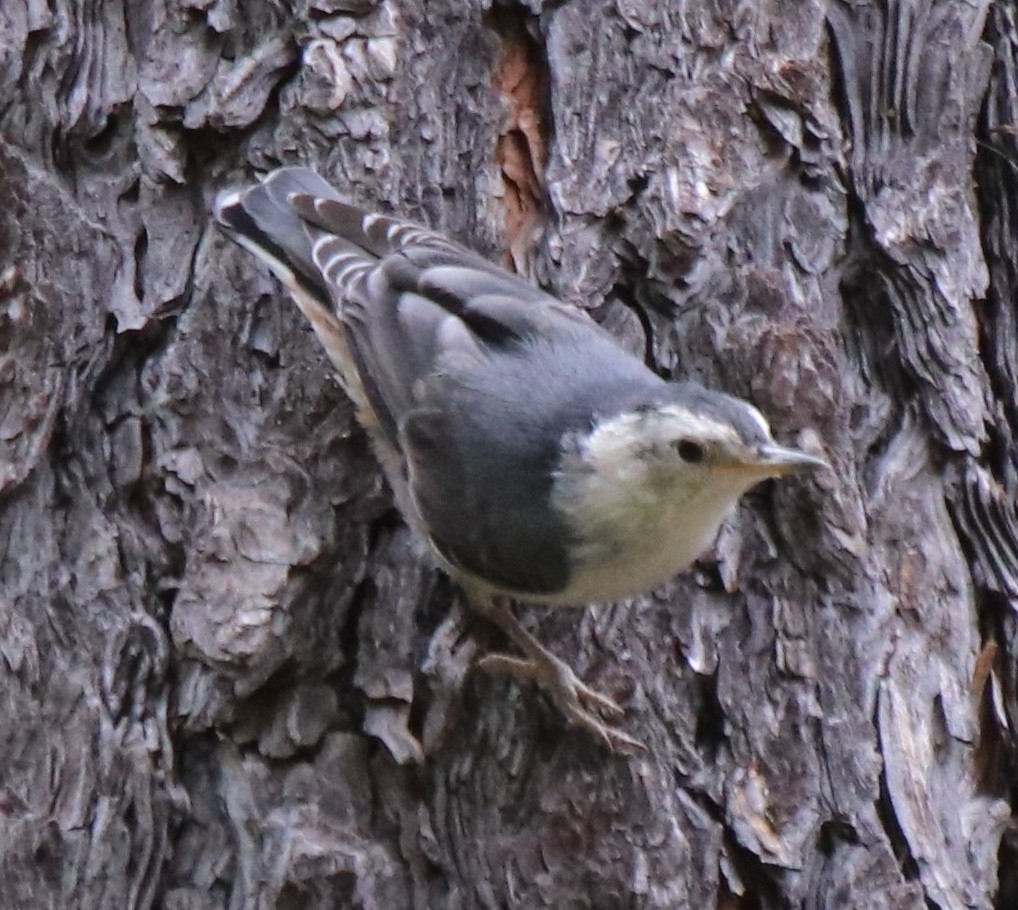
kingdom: Animalia
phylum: Chordata
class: Aves
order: Passeriformes
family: Sittidae
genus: Sitta
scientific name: Sitta carolinensis
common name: White-breasted nuthatch
